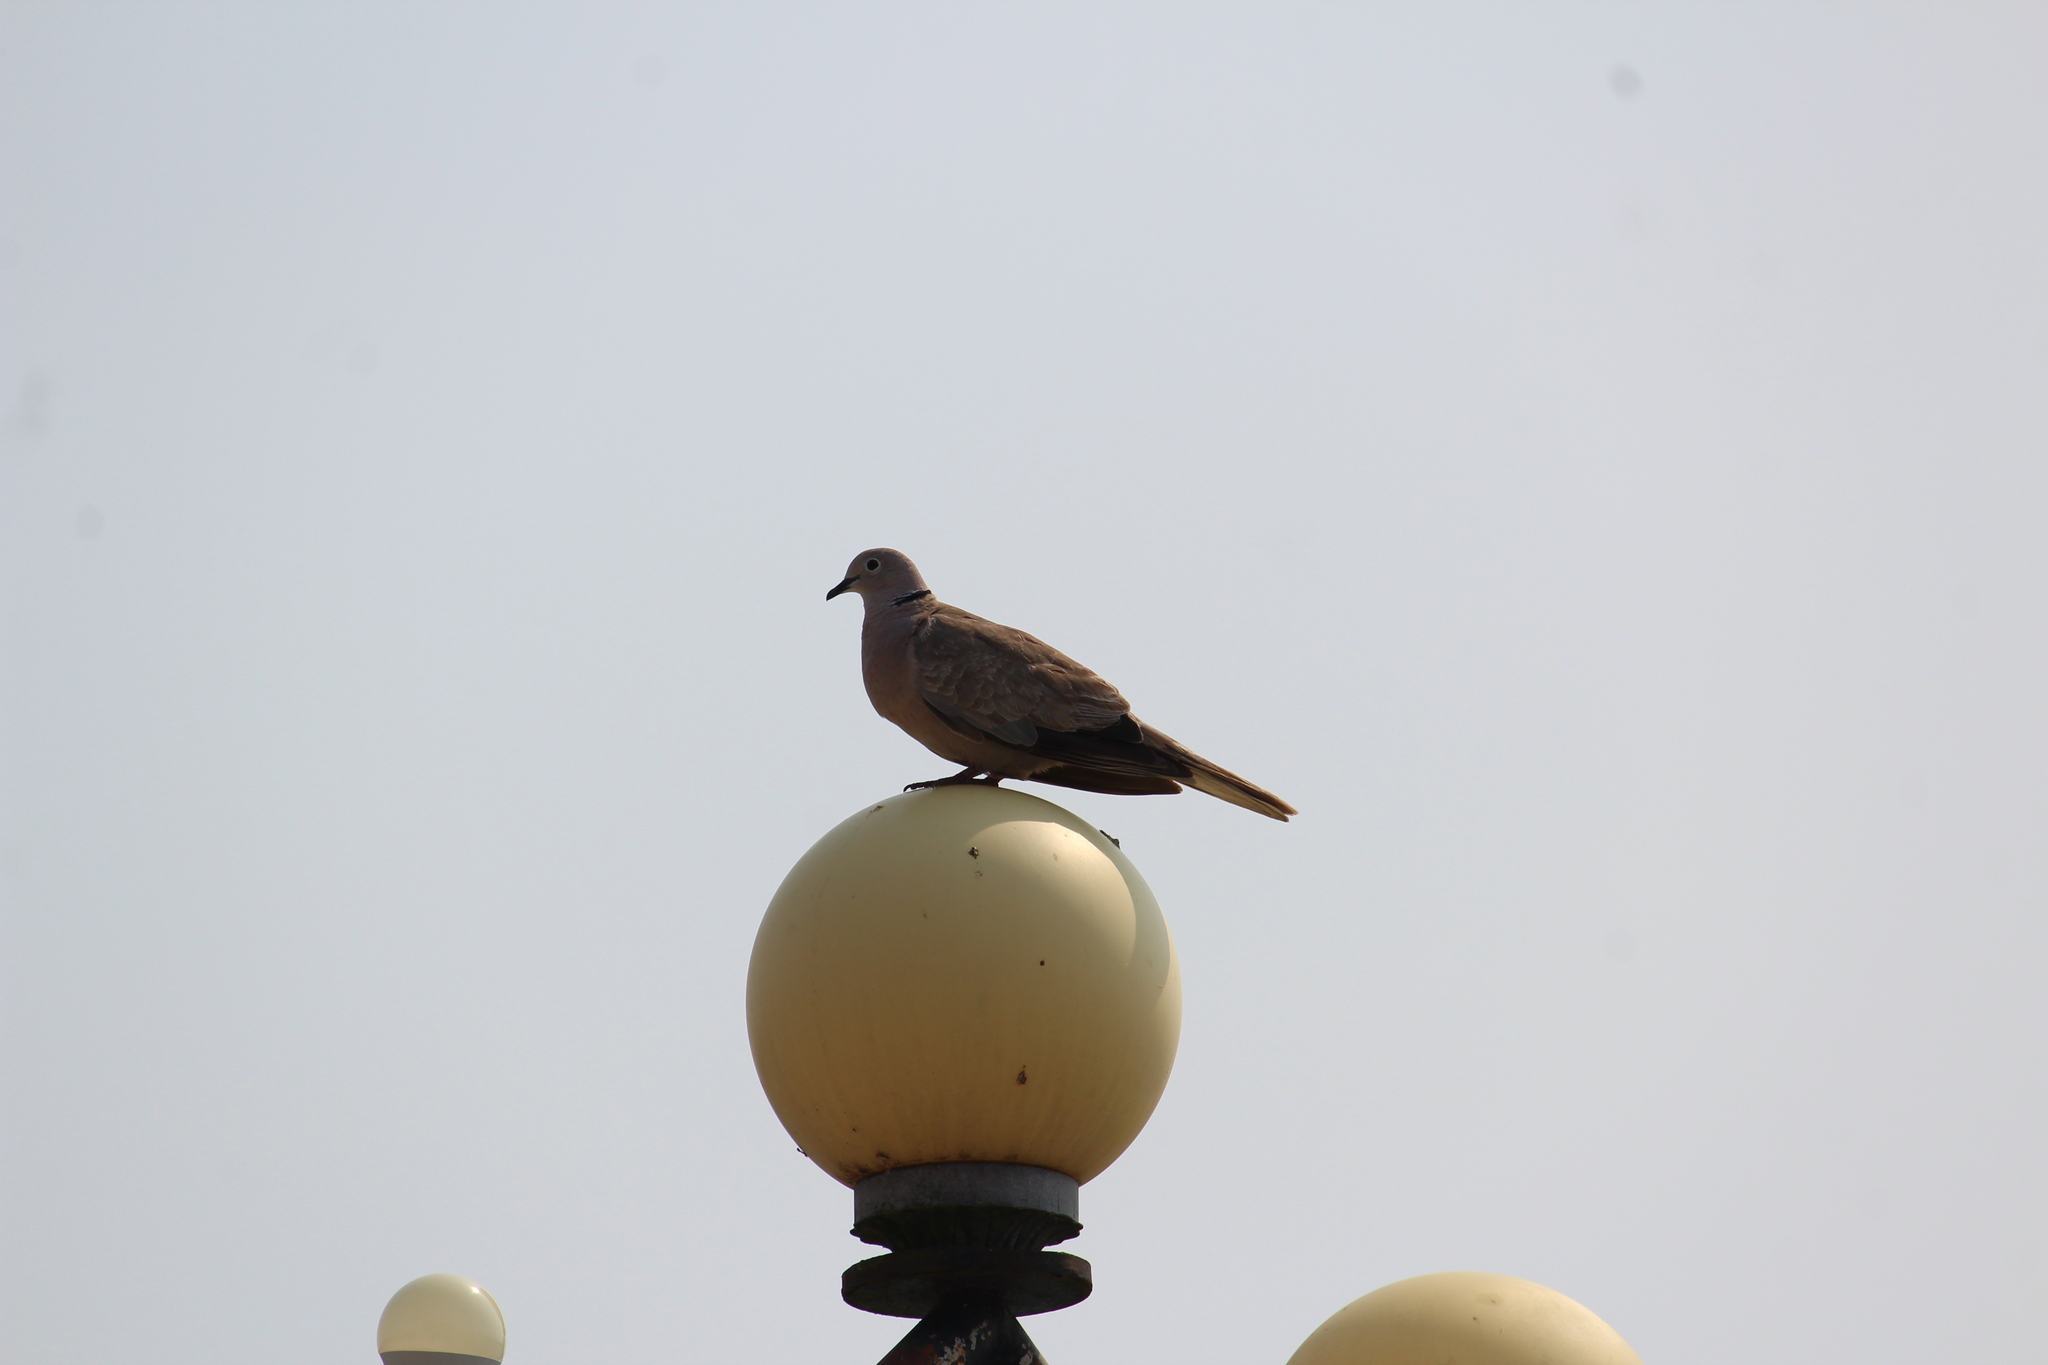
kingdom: Animalia
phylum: Chordata
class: Aves
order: Columbiformes
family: Columbidae
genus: Streptopelia
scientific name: Streptopelia decaocto
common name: Eurasian collared dove
